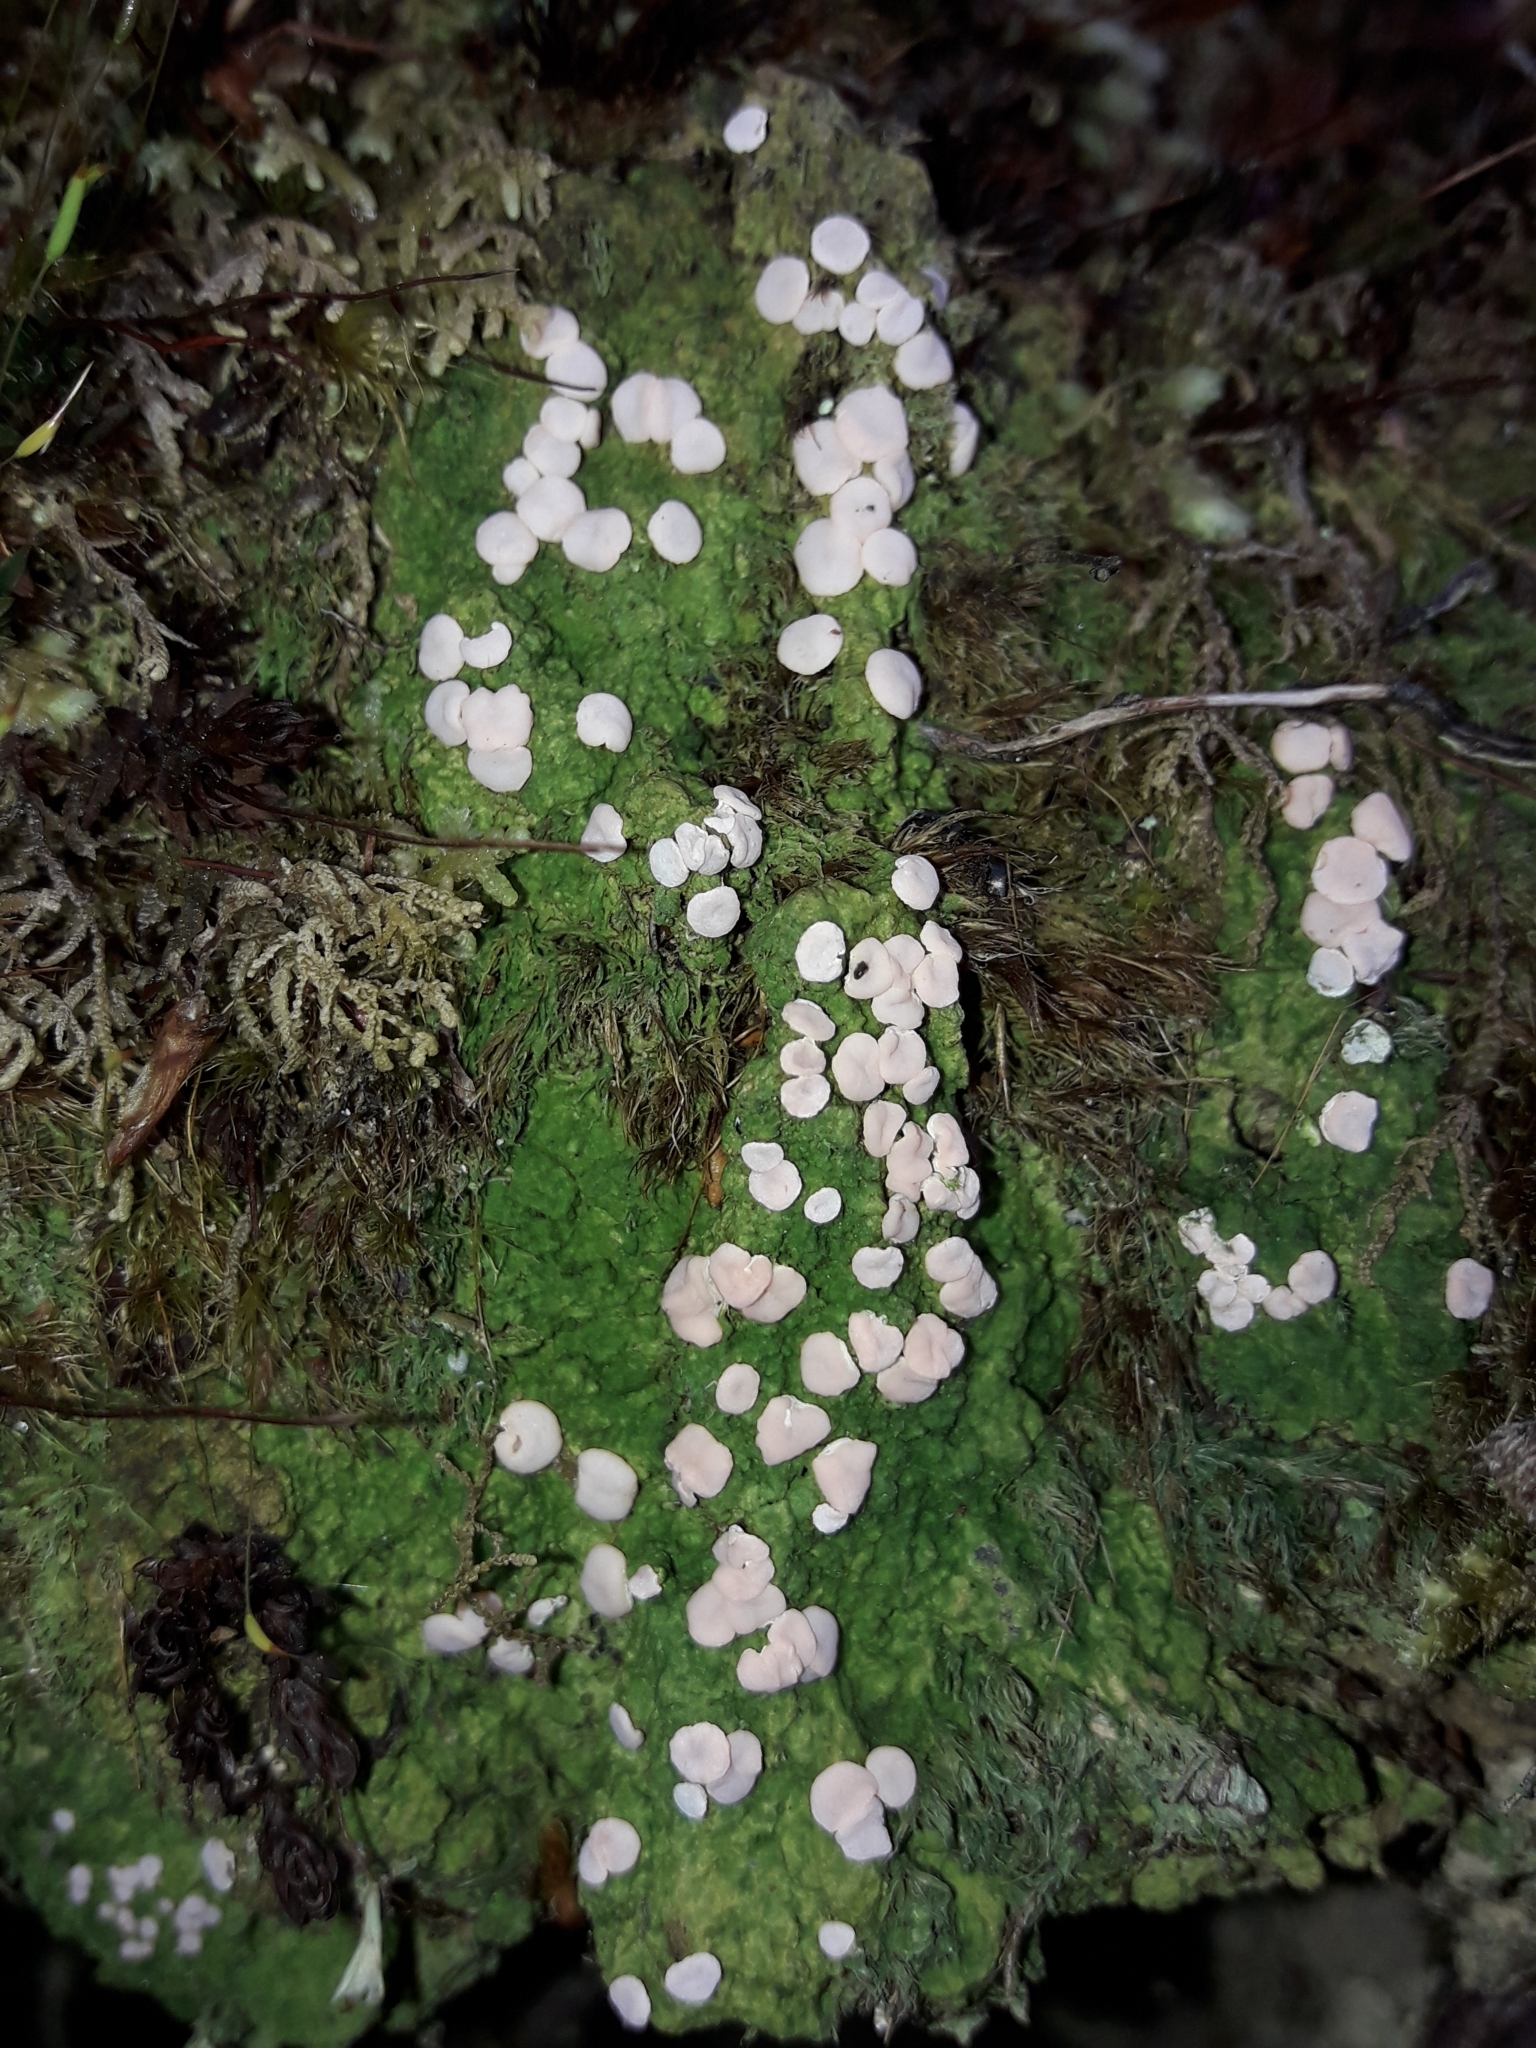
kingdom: Fungi
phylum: Ascomycota
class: Lecanoromycetes
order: Pertusariales
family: Icmadophilaceae
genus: Dibaeis
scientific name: Dibaeis absoluta
